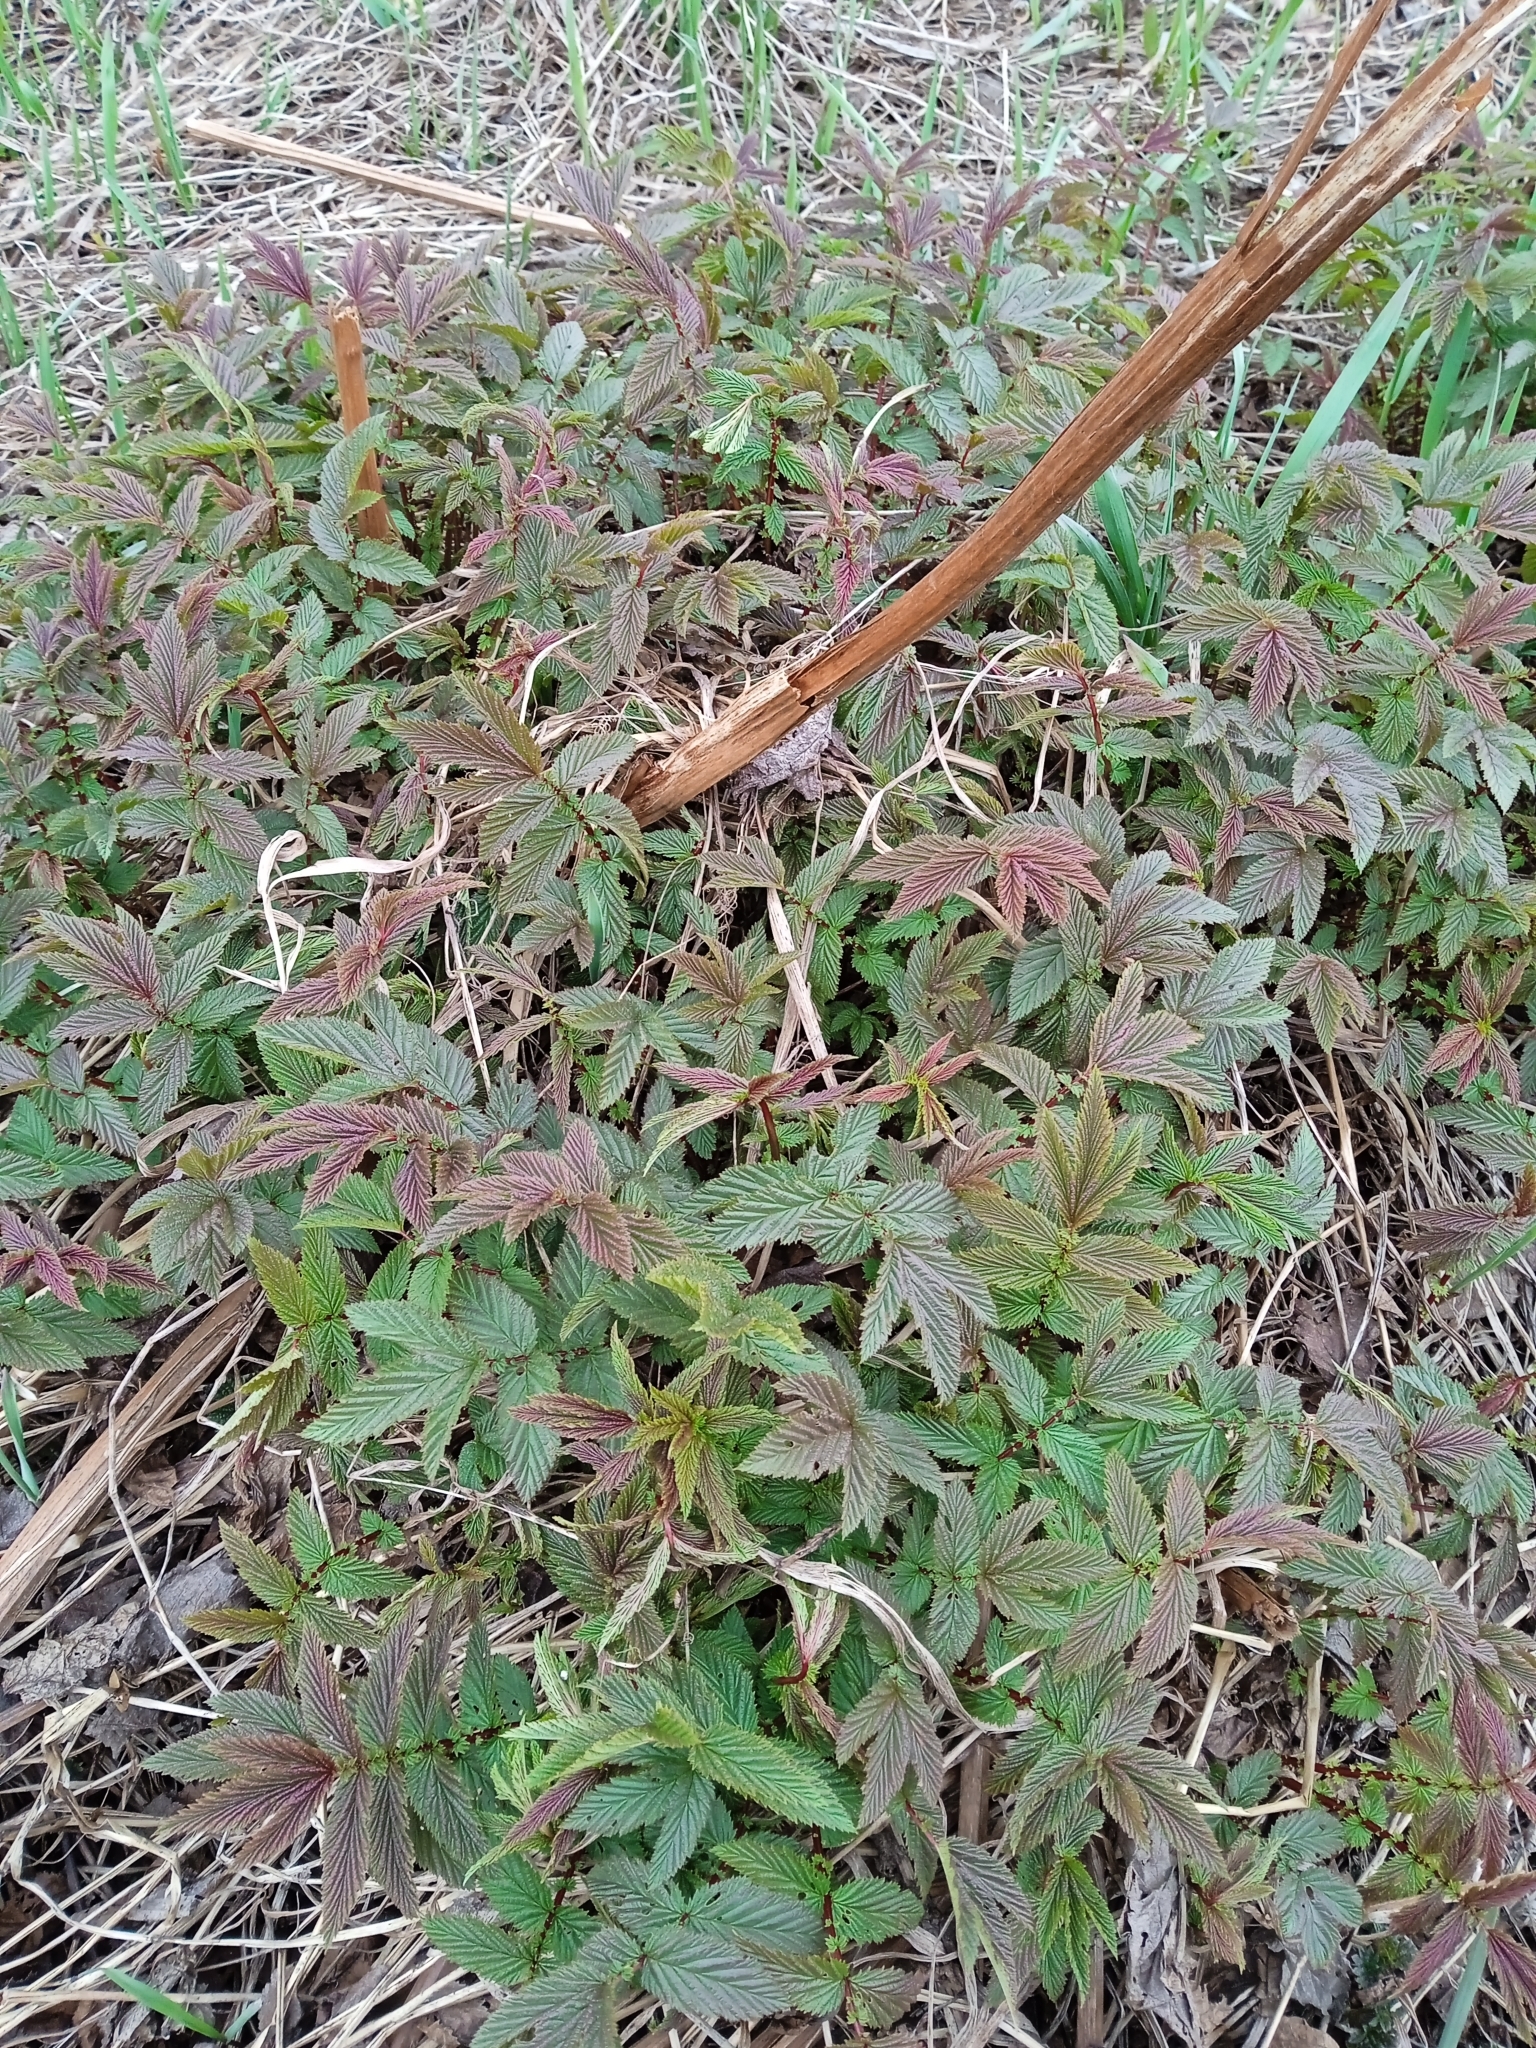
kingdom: Plantae
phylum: Tracheophyta
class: Magnoliopsida
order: Rosales
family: Rosaceae
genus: Filipendula
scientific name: Filipendula ulmaria
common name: Meadowsweet
